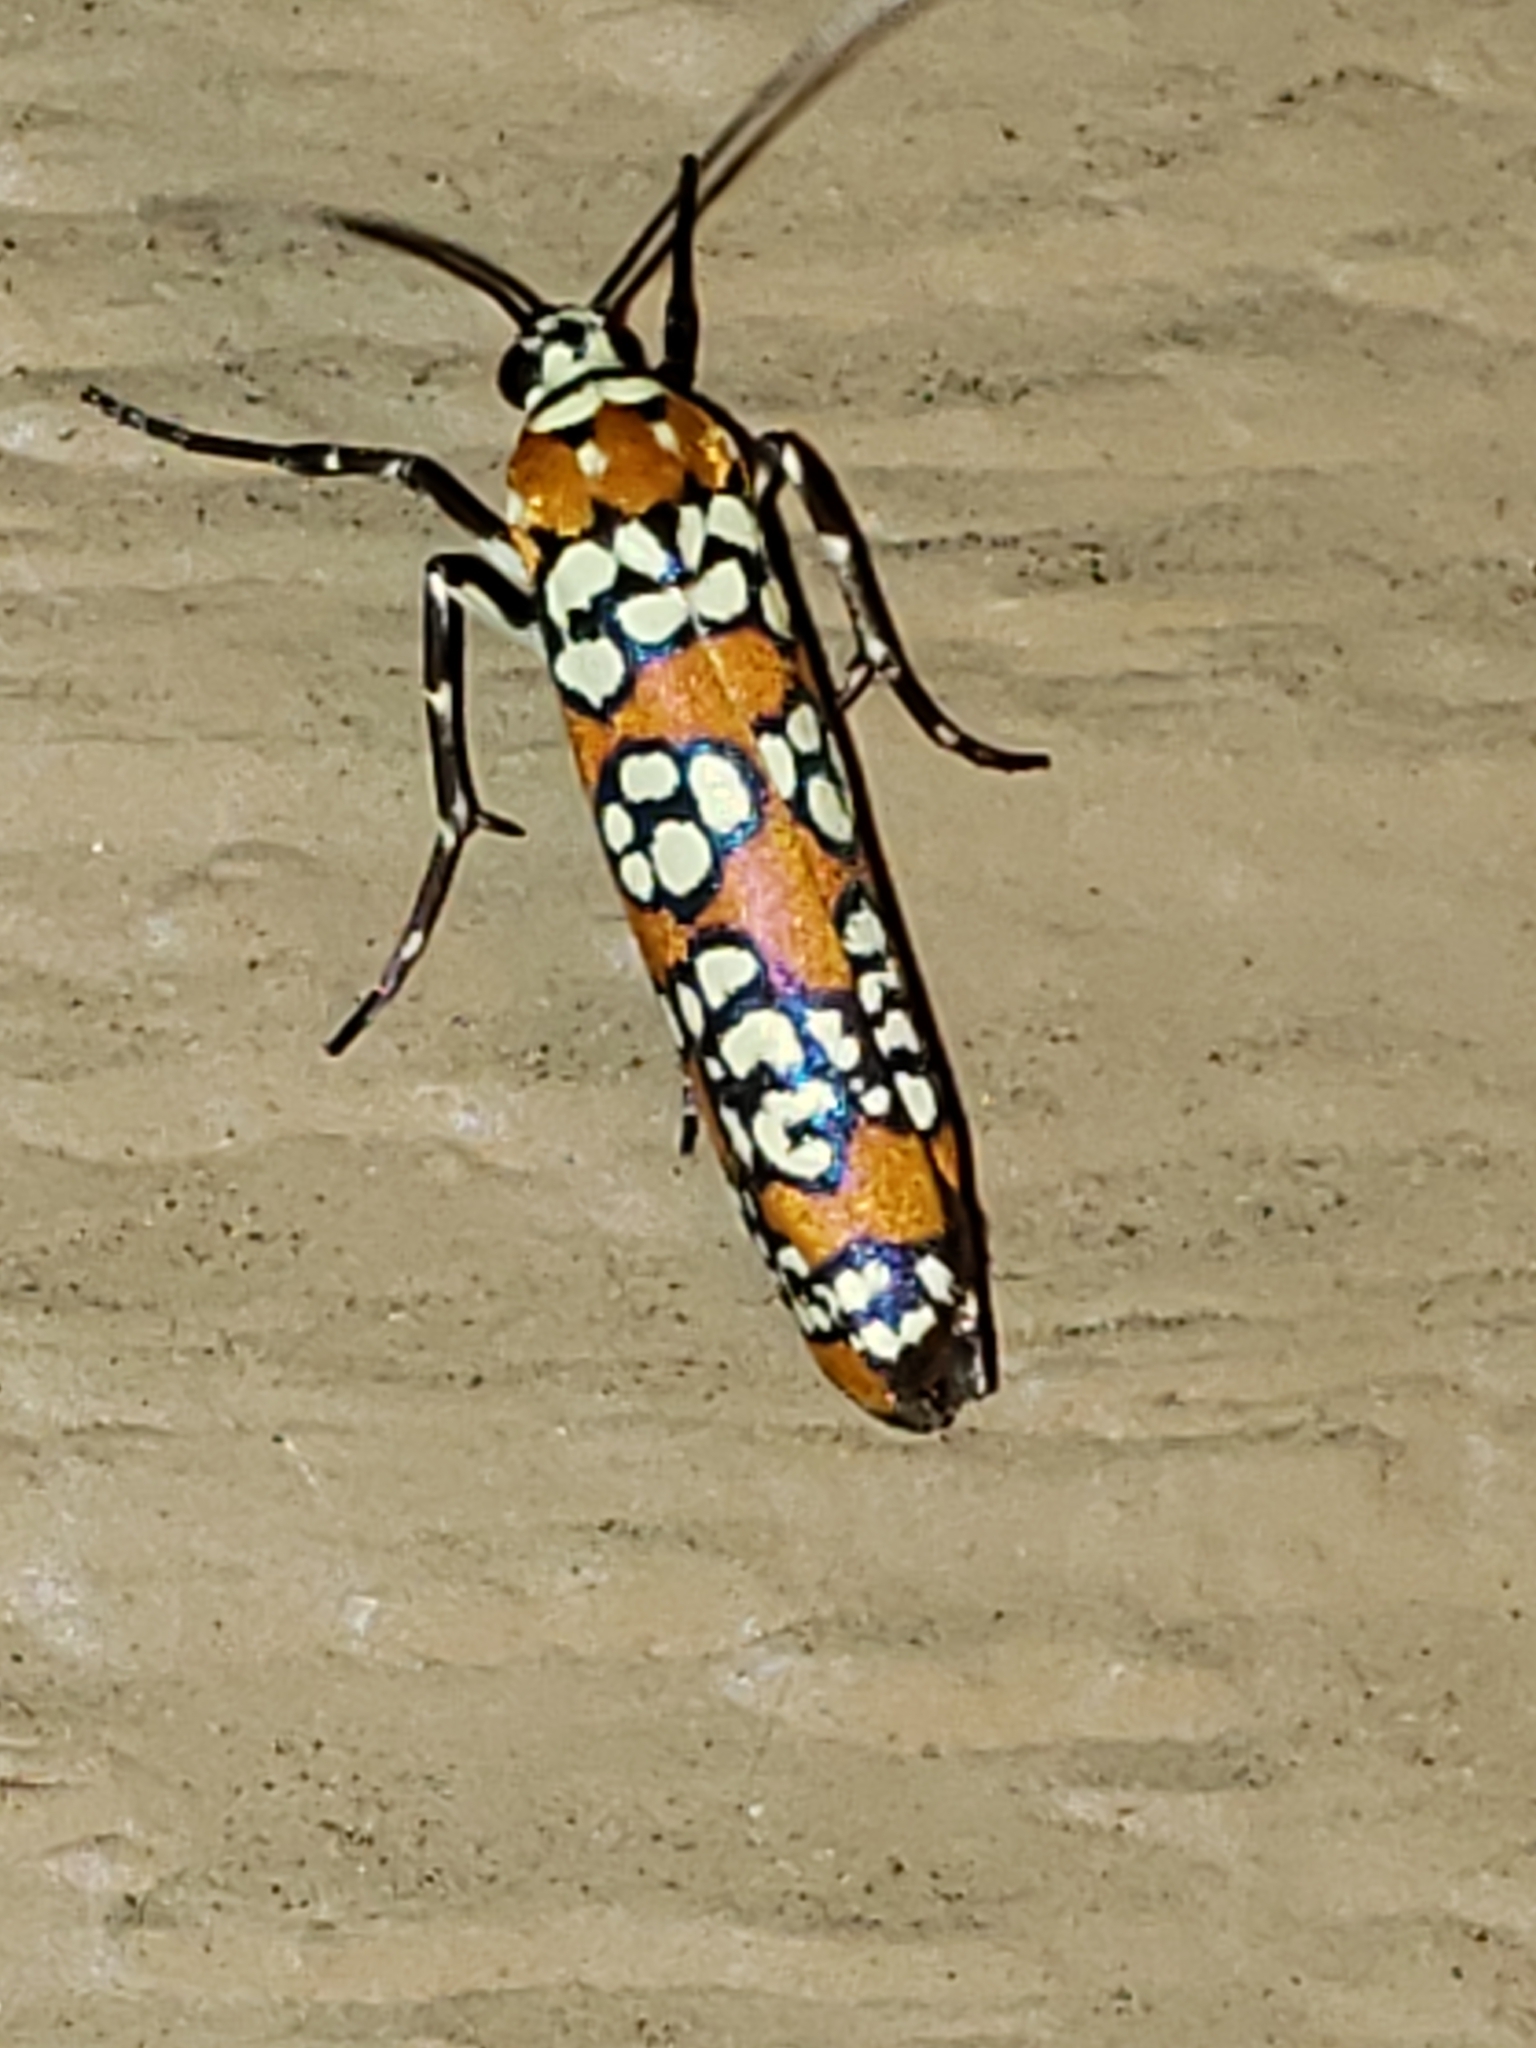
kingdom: Animalia
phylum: Arthropoda
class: Insecta
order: Lepidoptera
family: Attevidae
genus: Atteva
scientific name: Atteva punctella
